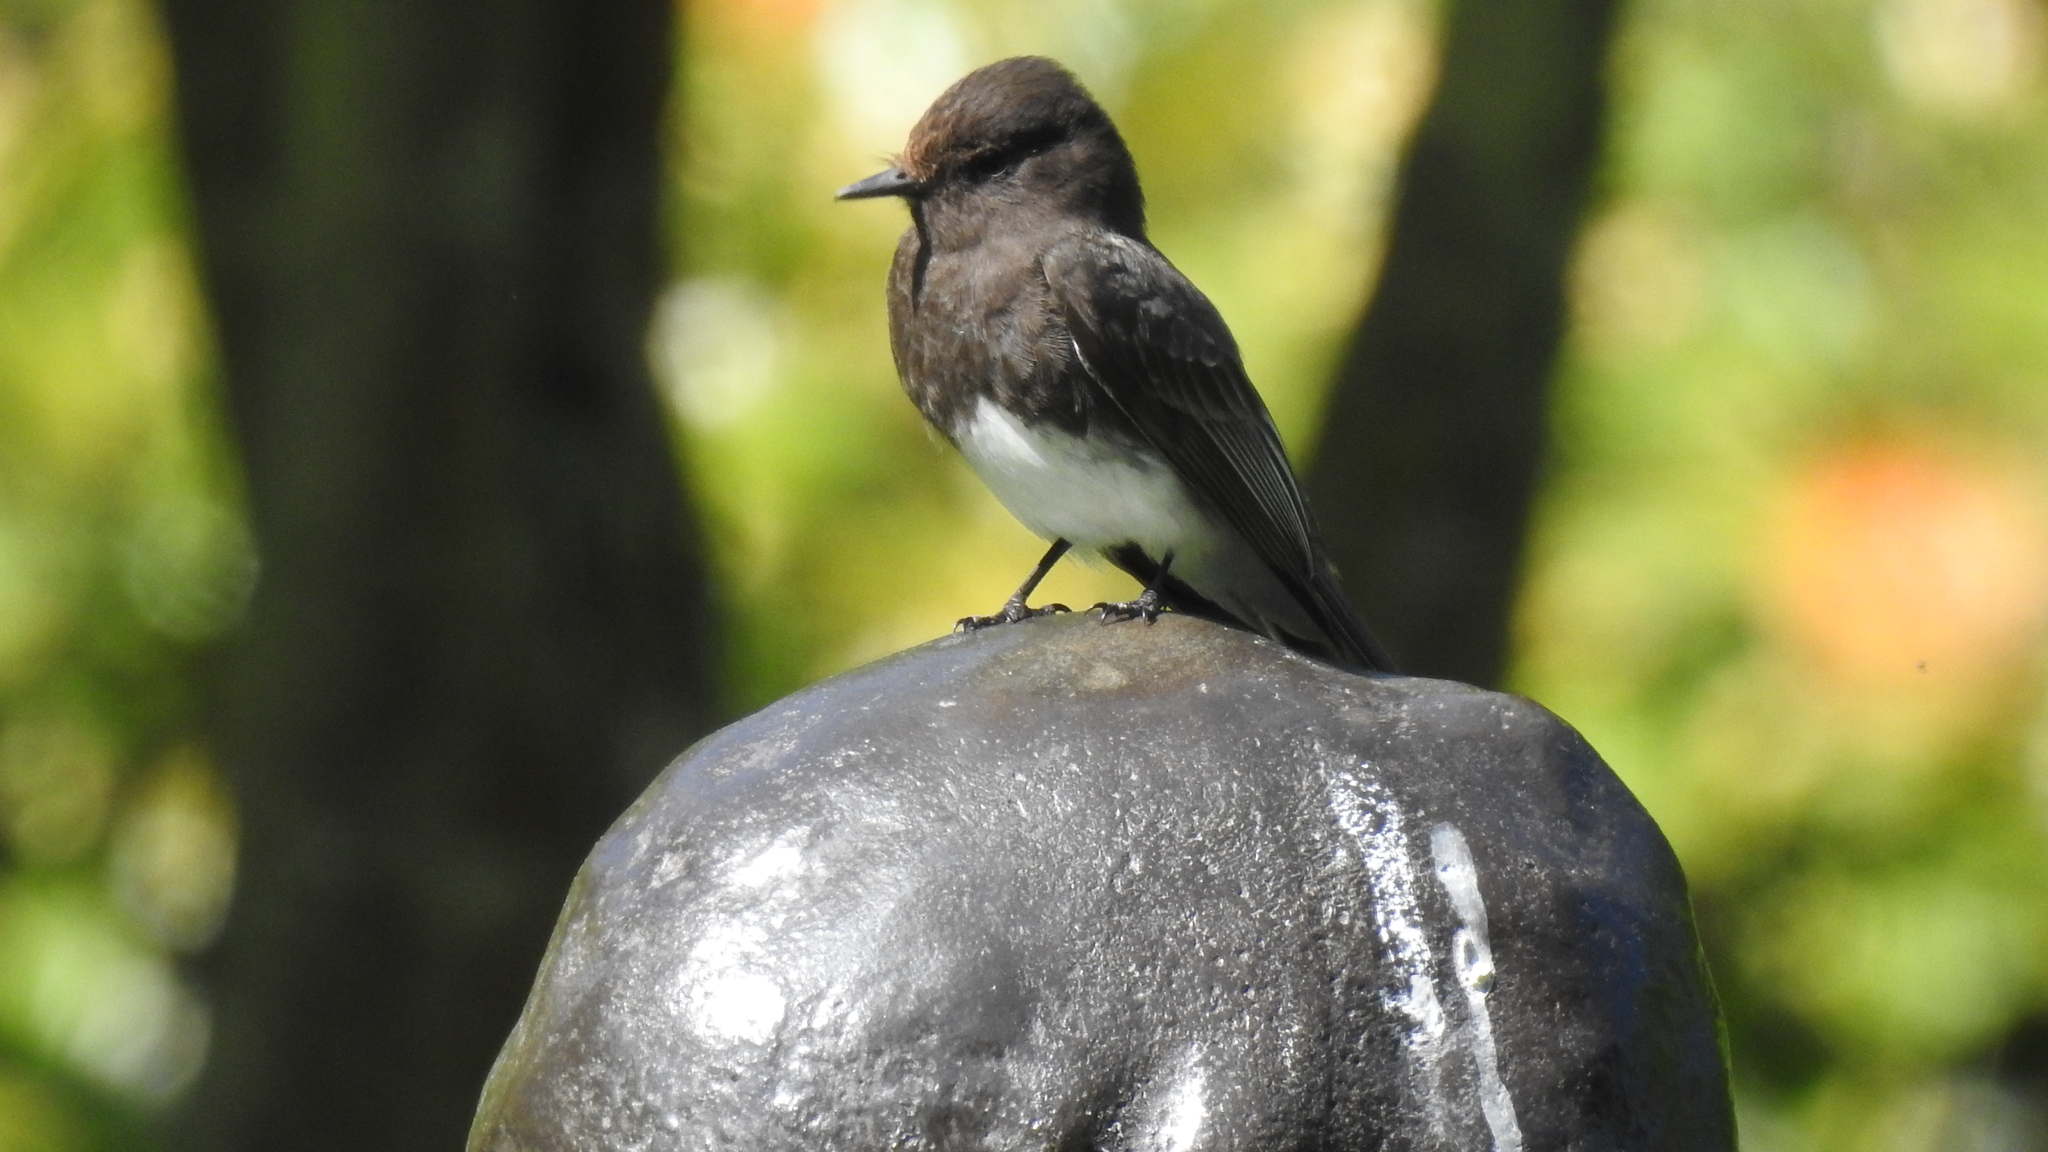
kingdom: Animalia
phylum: Chordata
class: Aves
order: Passeriformes
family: Tyrannidae
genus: Sayornis
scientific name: Sayornis nigricans
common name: Black phoebe
